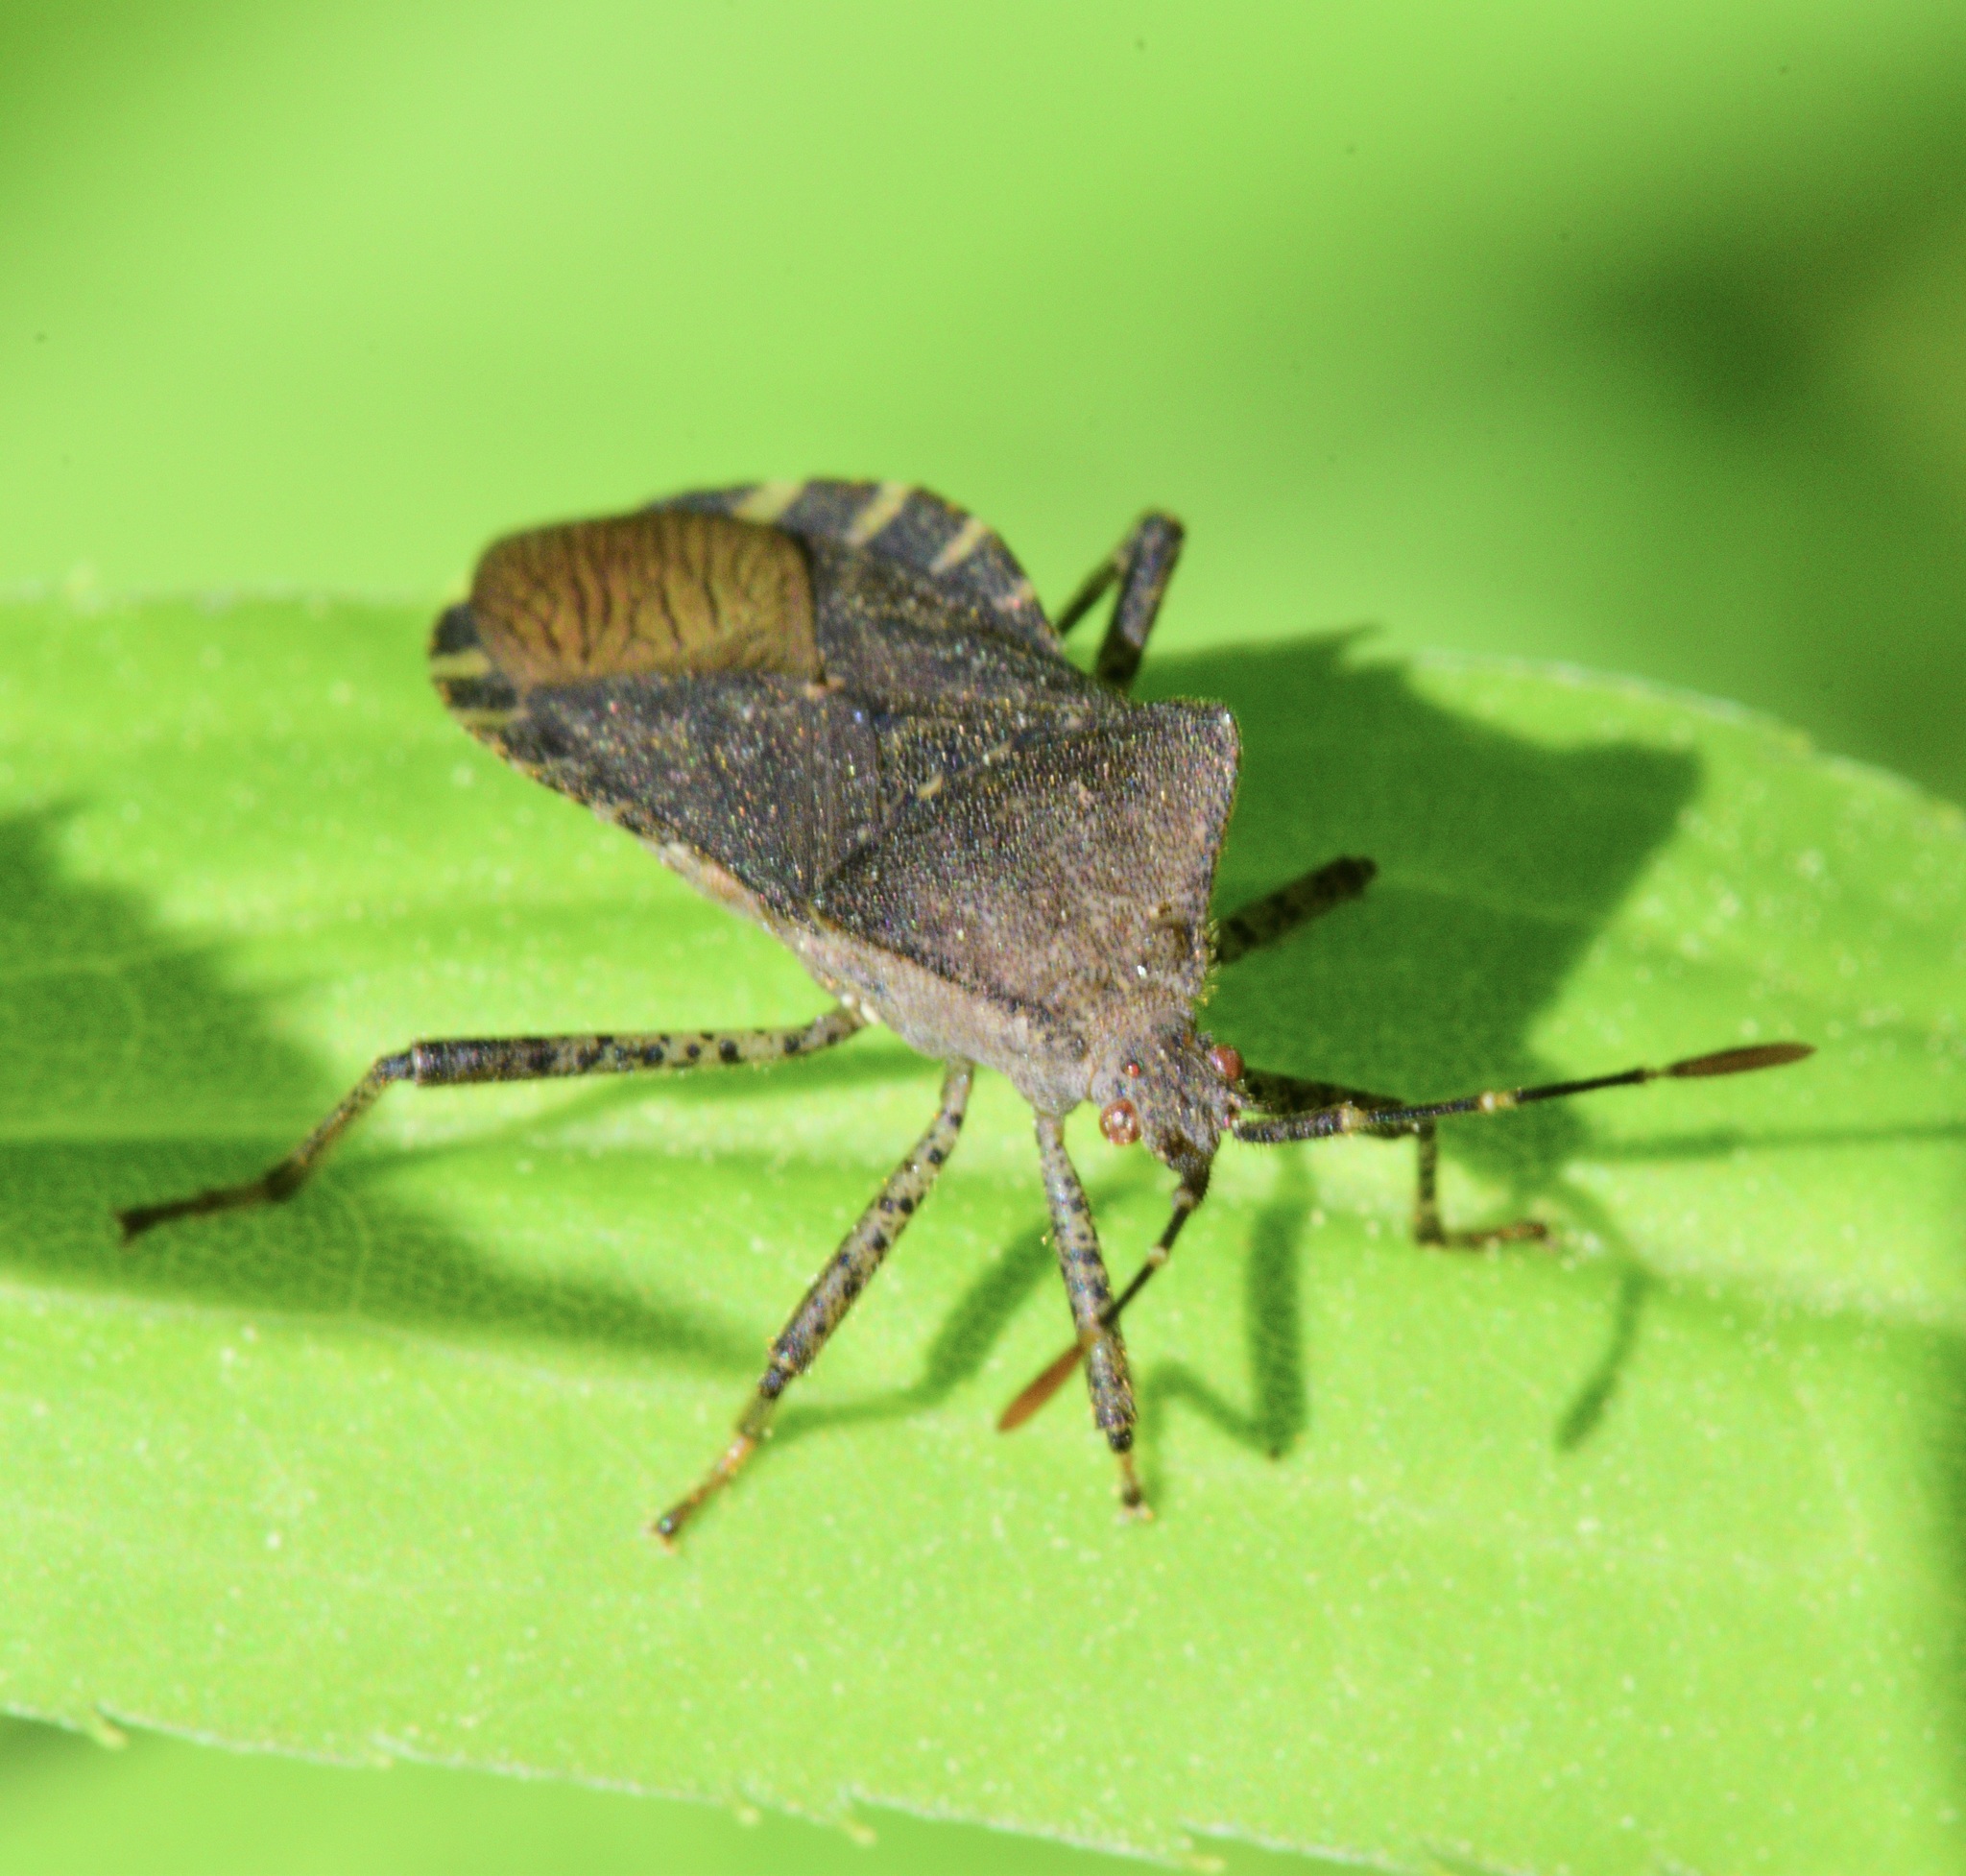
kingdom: Animalia
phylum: Arthropoda
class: Insecta
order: Hemiptera
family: Coreidae
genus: Anasa
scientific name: Anasa armigera
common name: Horned squash bug
